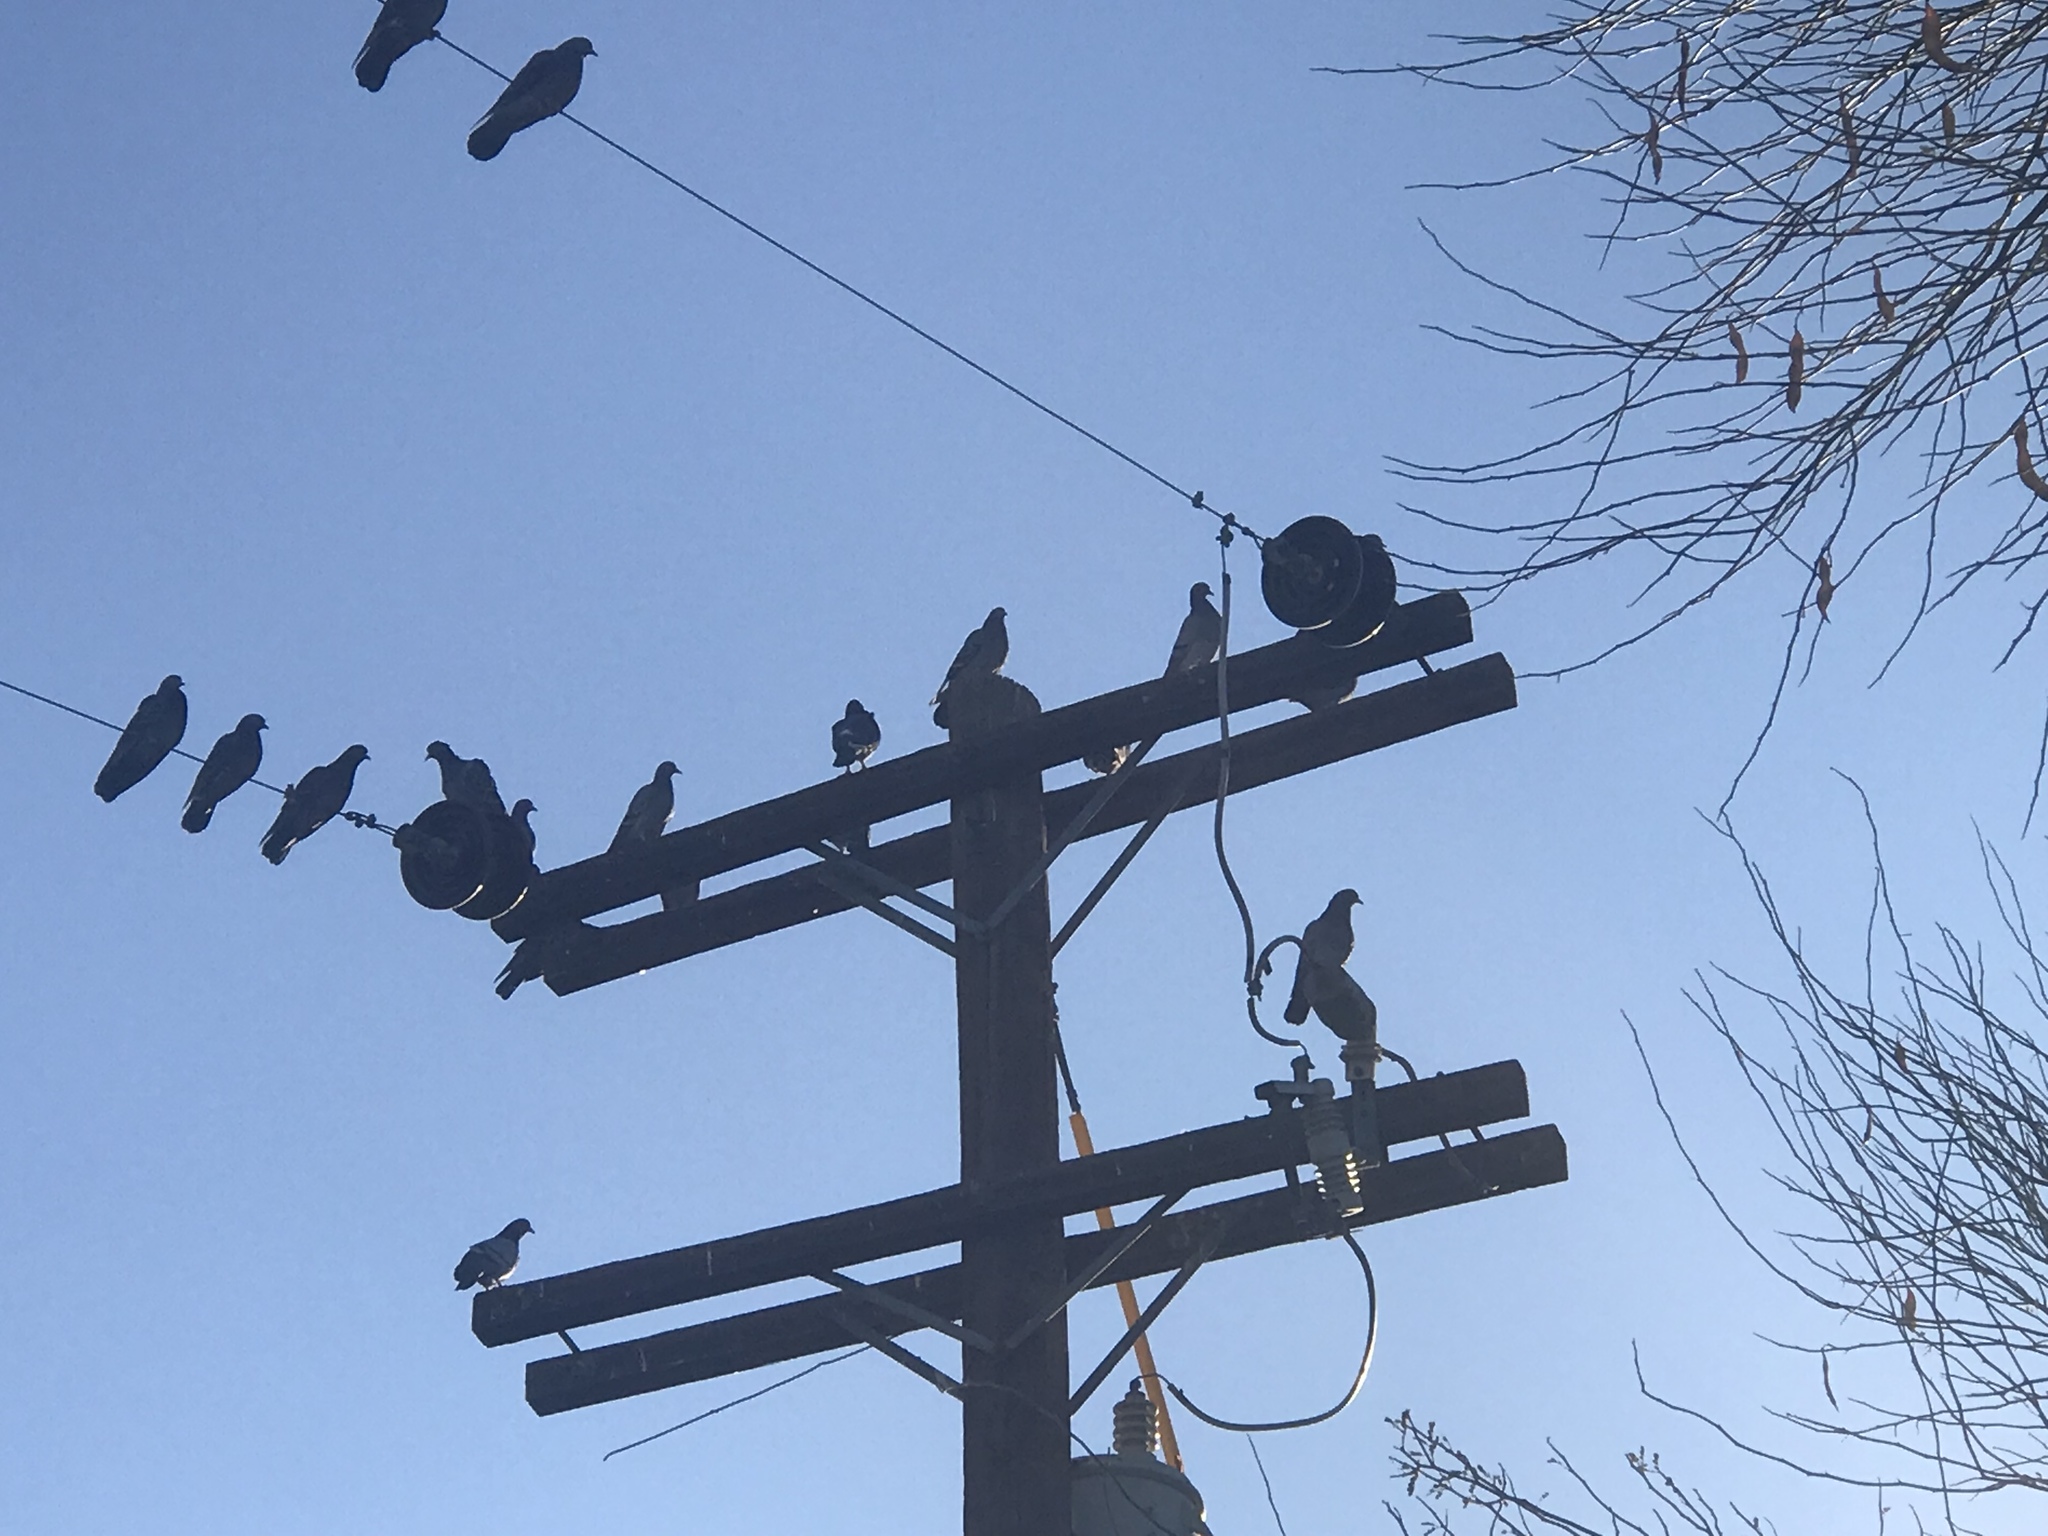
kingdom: Animalia
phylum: Chordata
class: Aves
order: Columbiformes
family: Columbidae
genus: Columba
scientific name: Columba livia
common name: Rock pigeon
